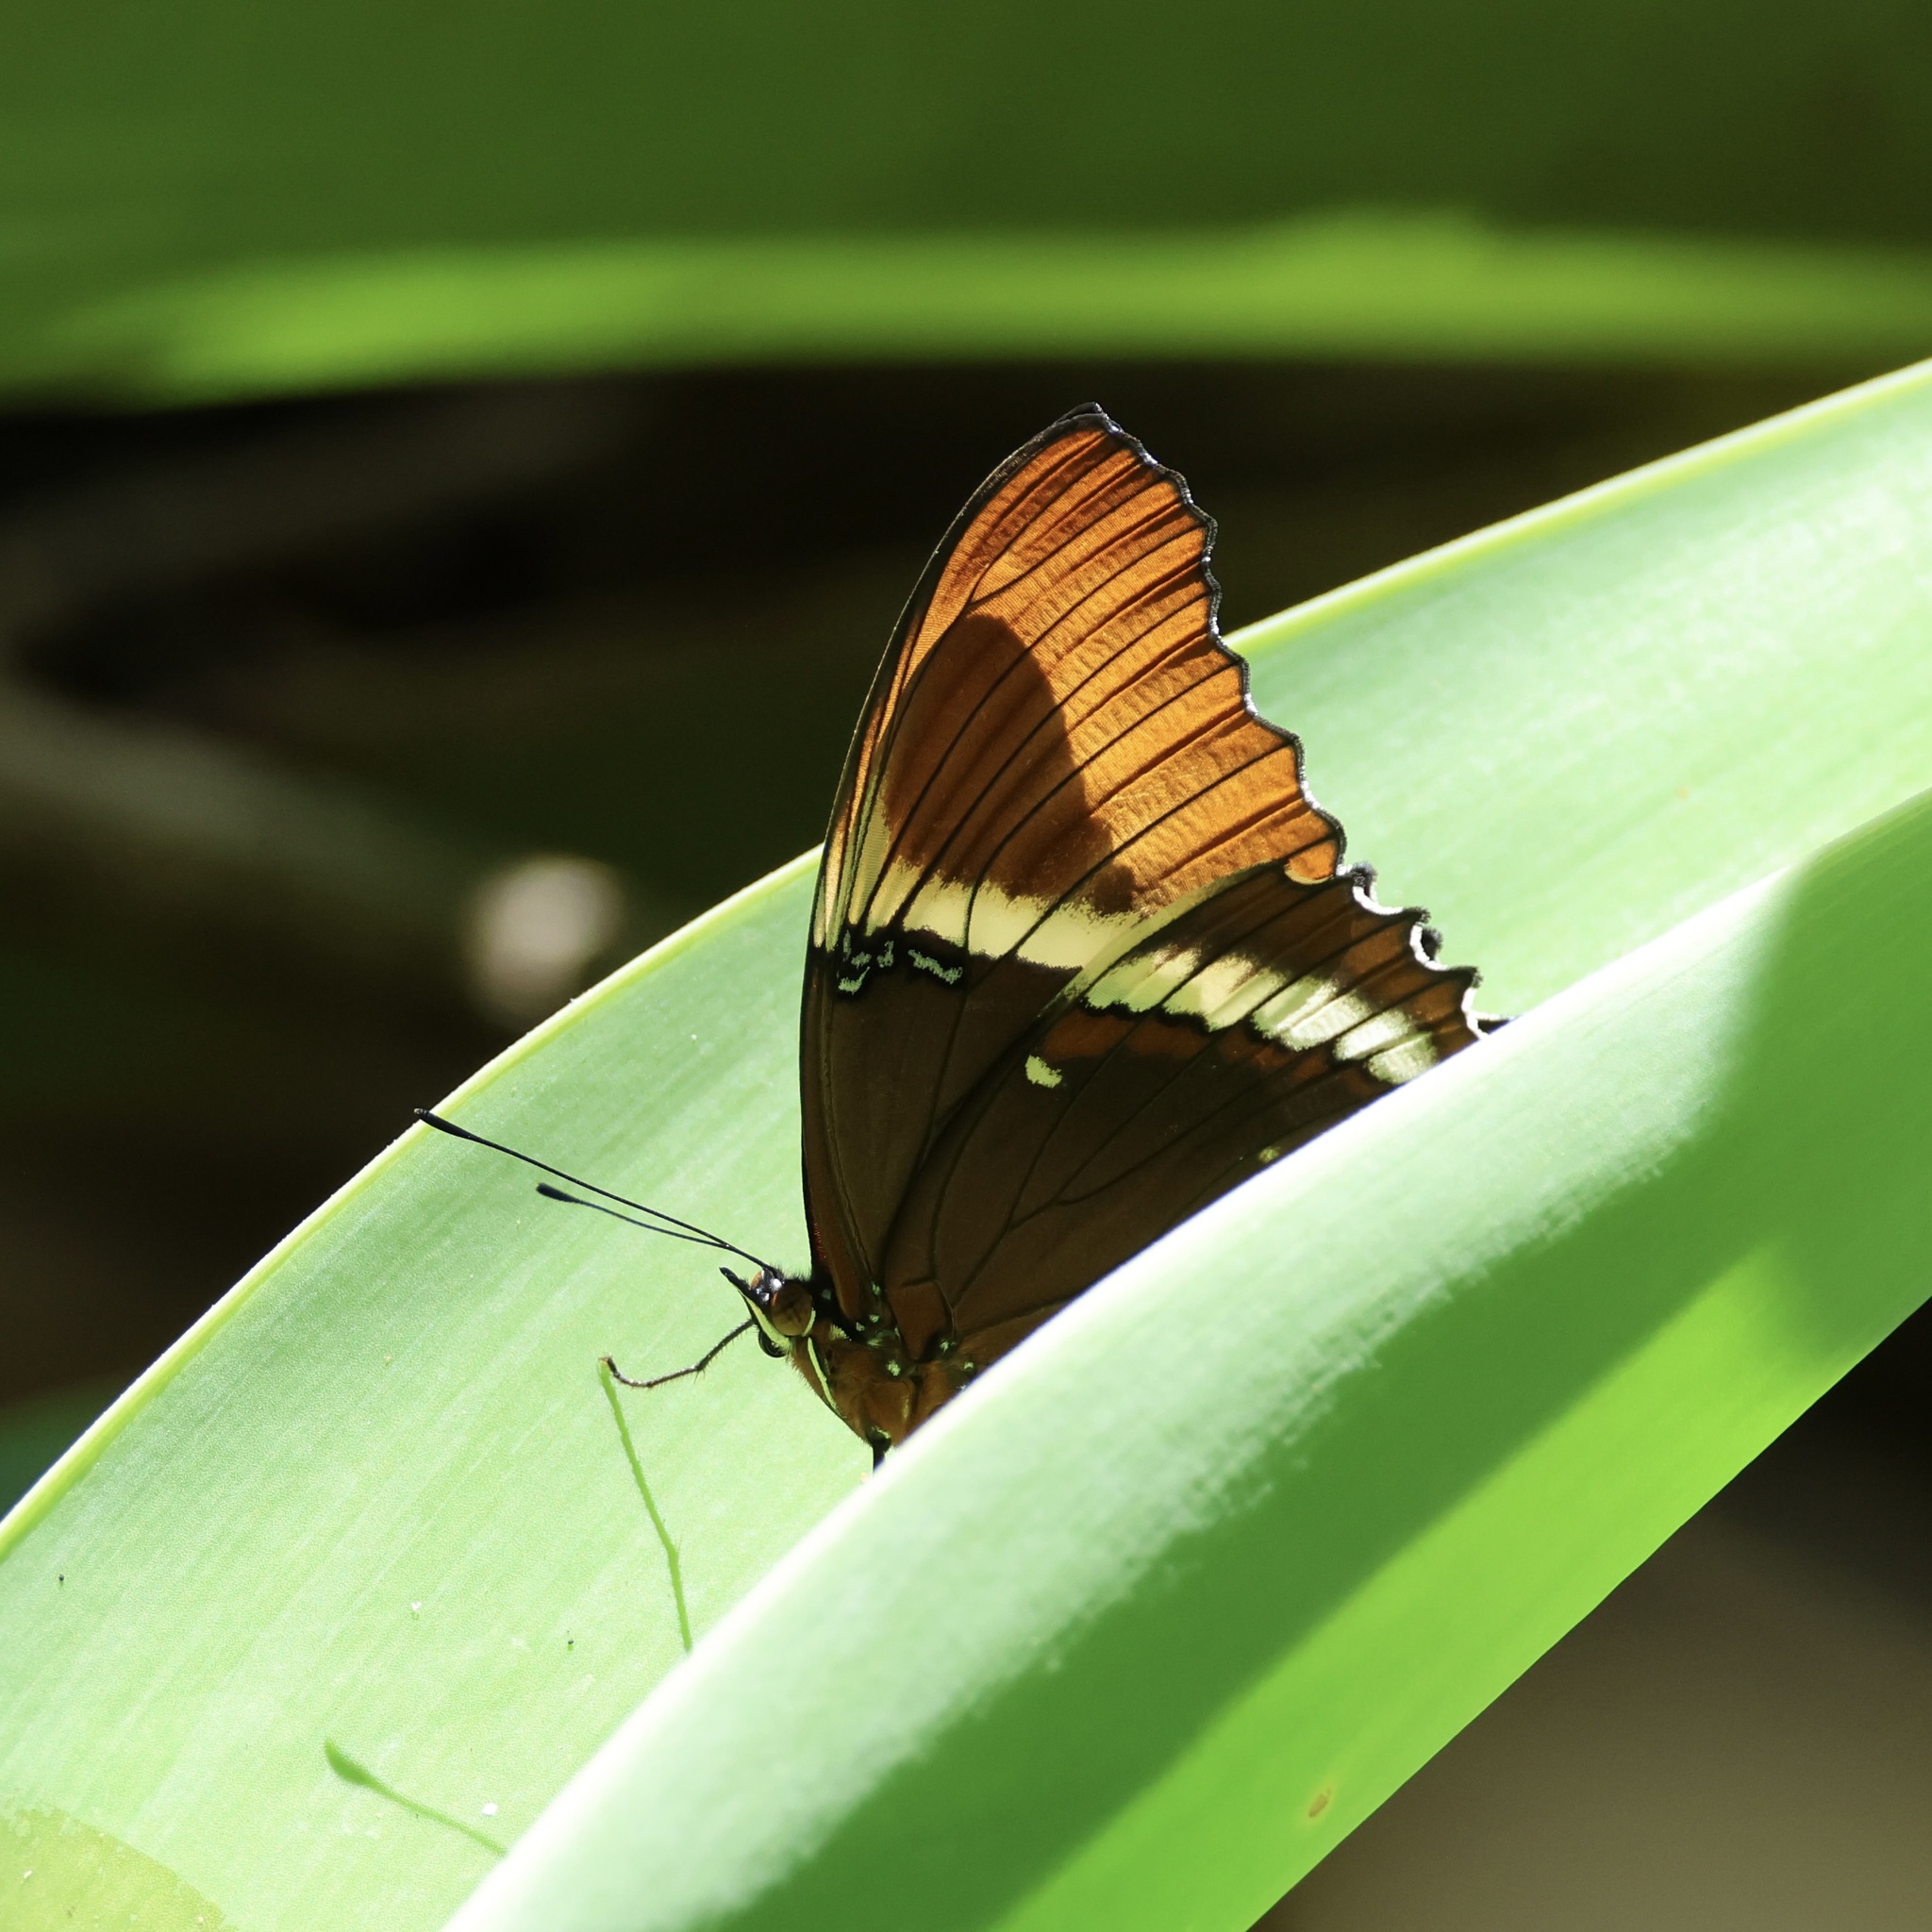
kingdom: Animalia
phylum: Arthropoda
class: Insecta
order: Lepidoptera
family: Nymphalidae
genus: Siproeta
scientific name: Siproeta epaphus
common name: Rusty-tipped page
